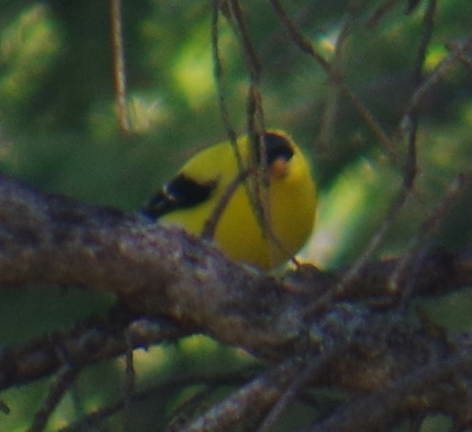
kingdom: Animalia
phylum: Chordata
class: Aves
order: Passeriformes
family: Fringillidae
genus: Spinus
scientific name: Spinus tristis
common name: American goldfinch
